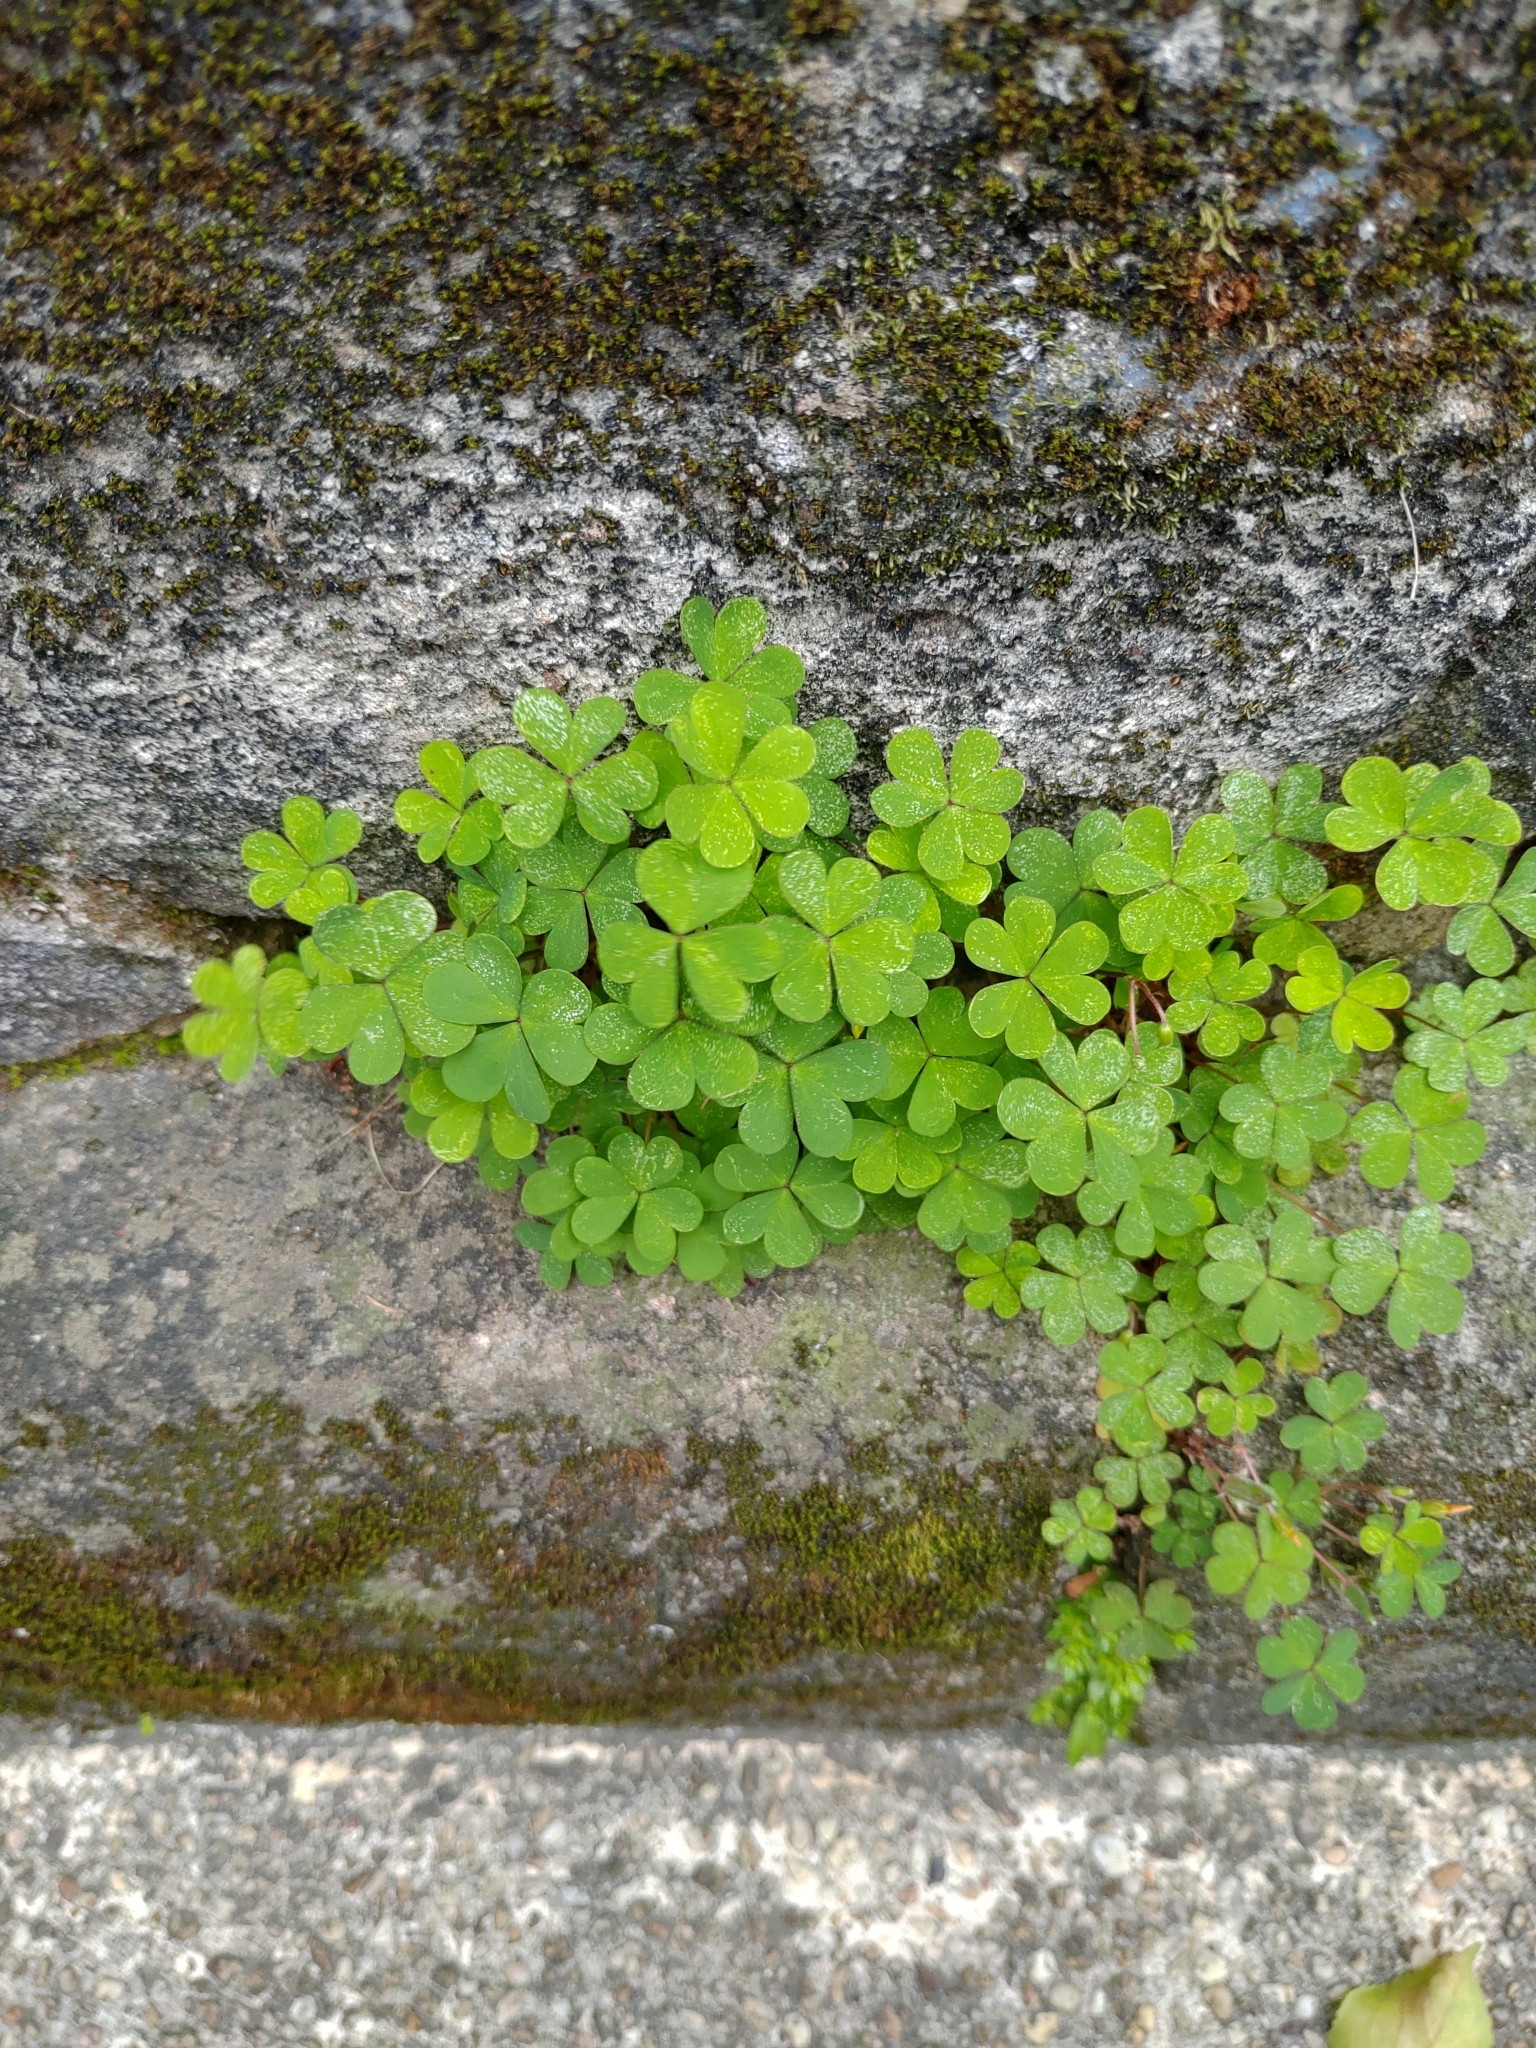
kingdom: Plantae
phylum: Tracheophyta
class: Magnoliopsida
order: Oxalidales
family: Oxalidaceae
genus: Oxalis
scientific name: Oxalis corniculata
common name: Procumbent yellow-sorrel
